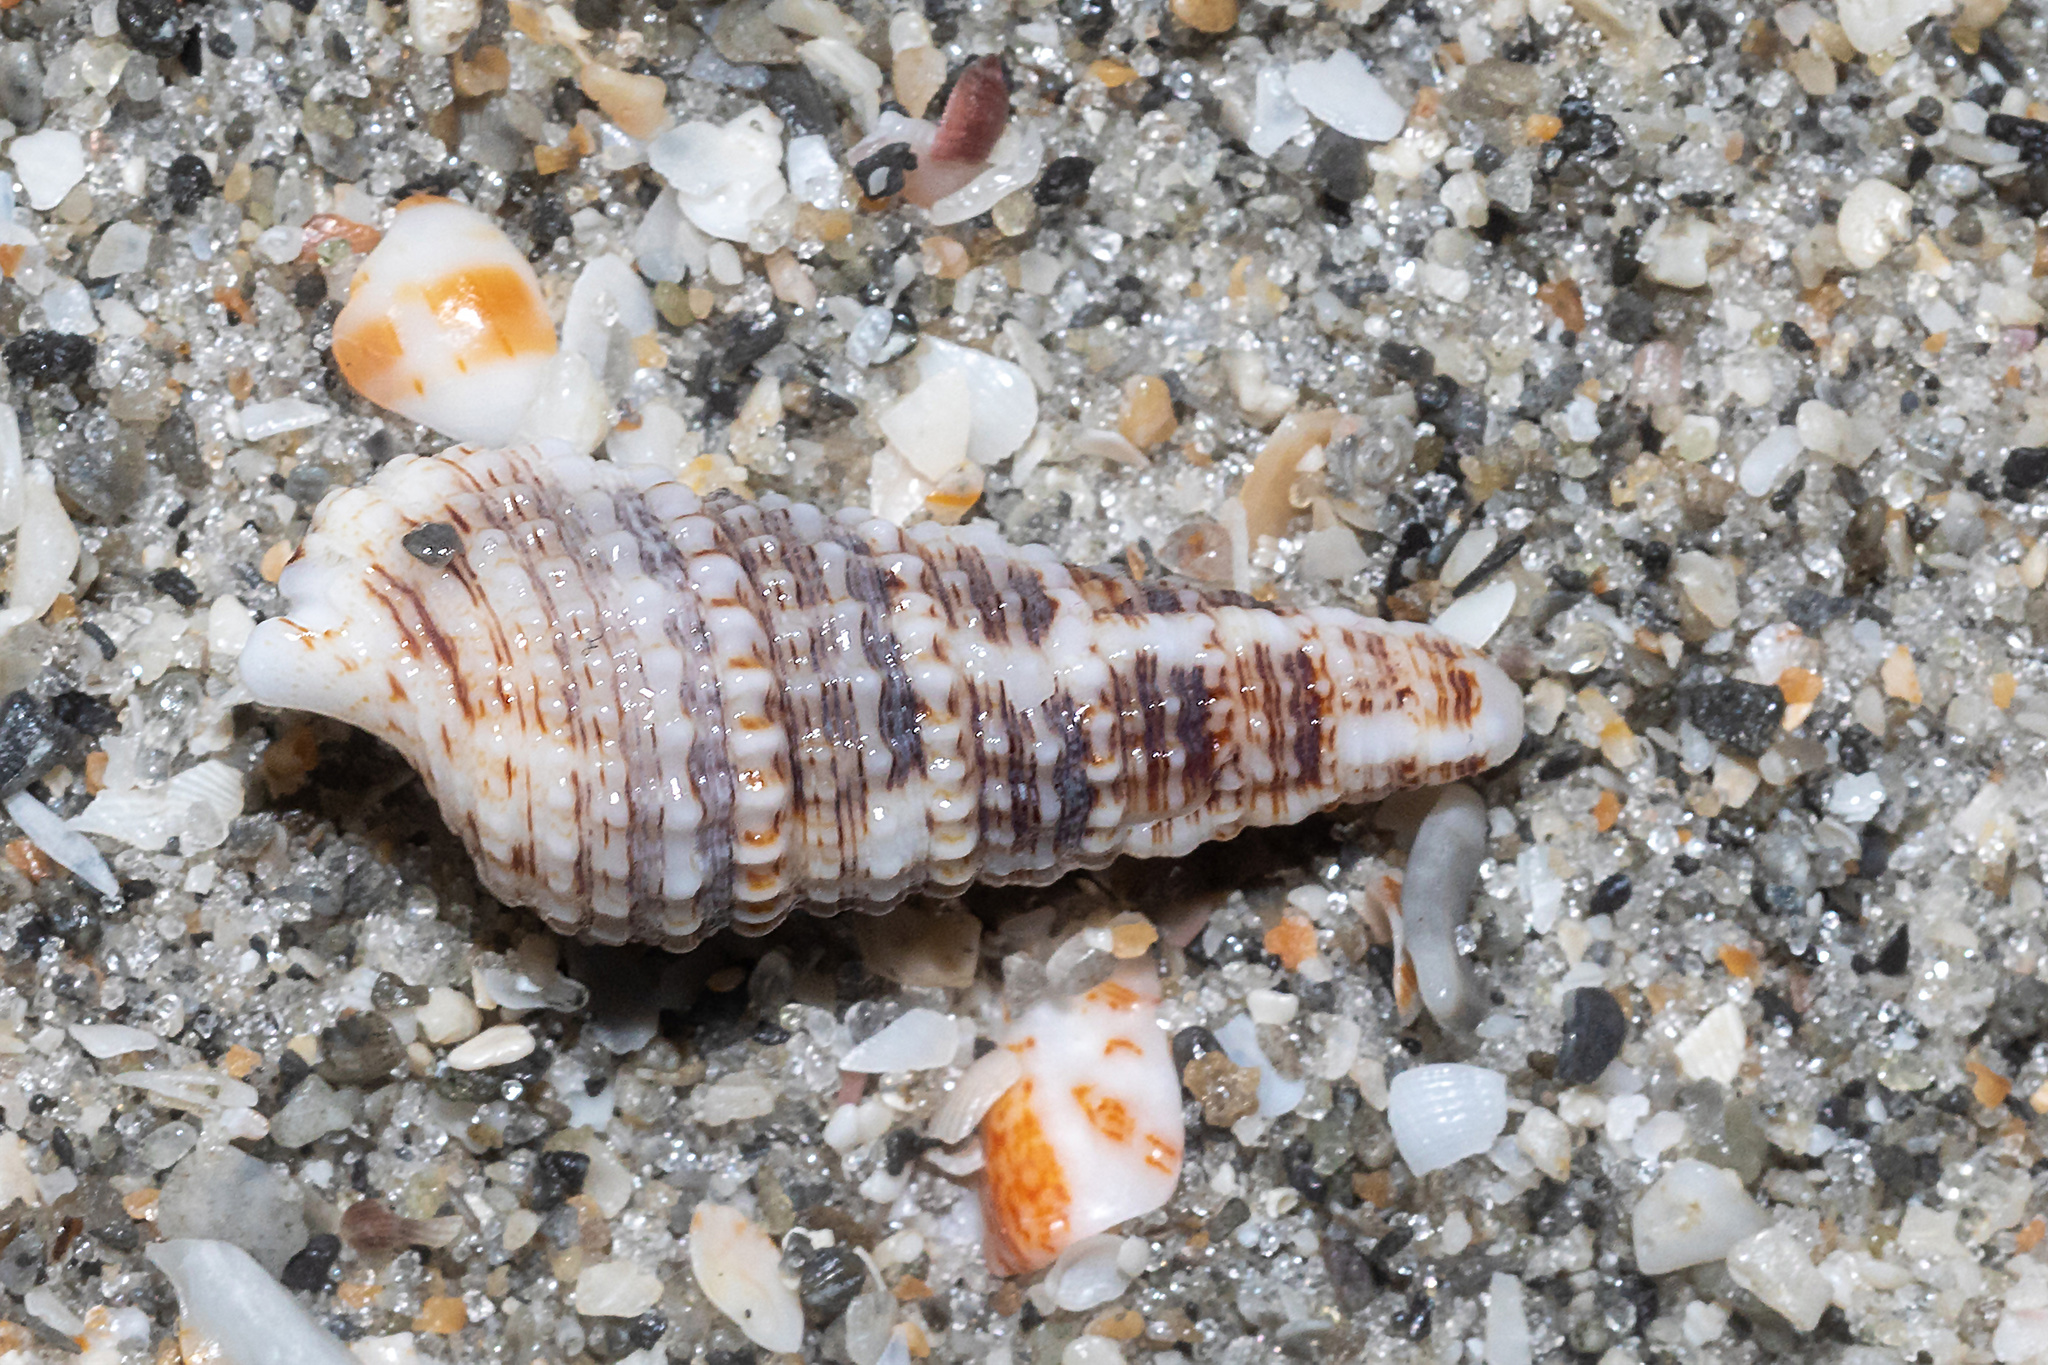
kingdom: Animalia
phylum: Mollusca
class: Gastropoda
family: Cerithiidae
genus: Cerithium
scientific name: Cerithium atratum
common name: Dark cerith
